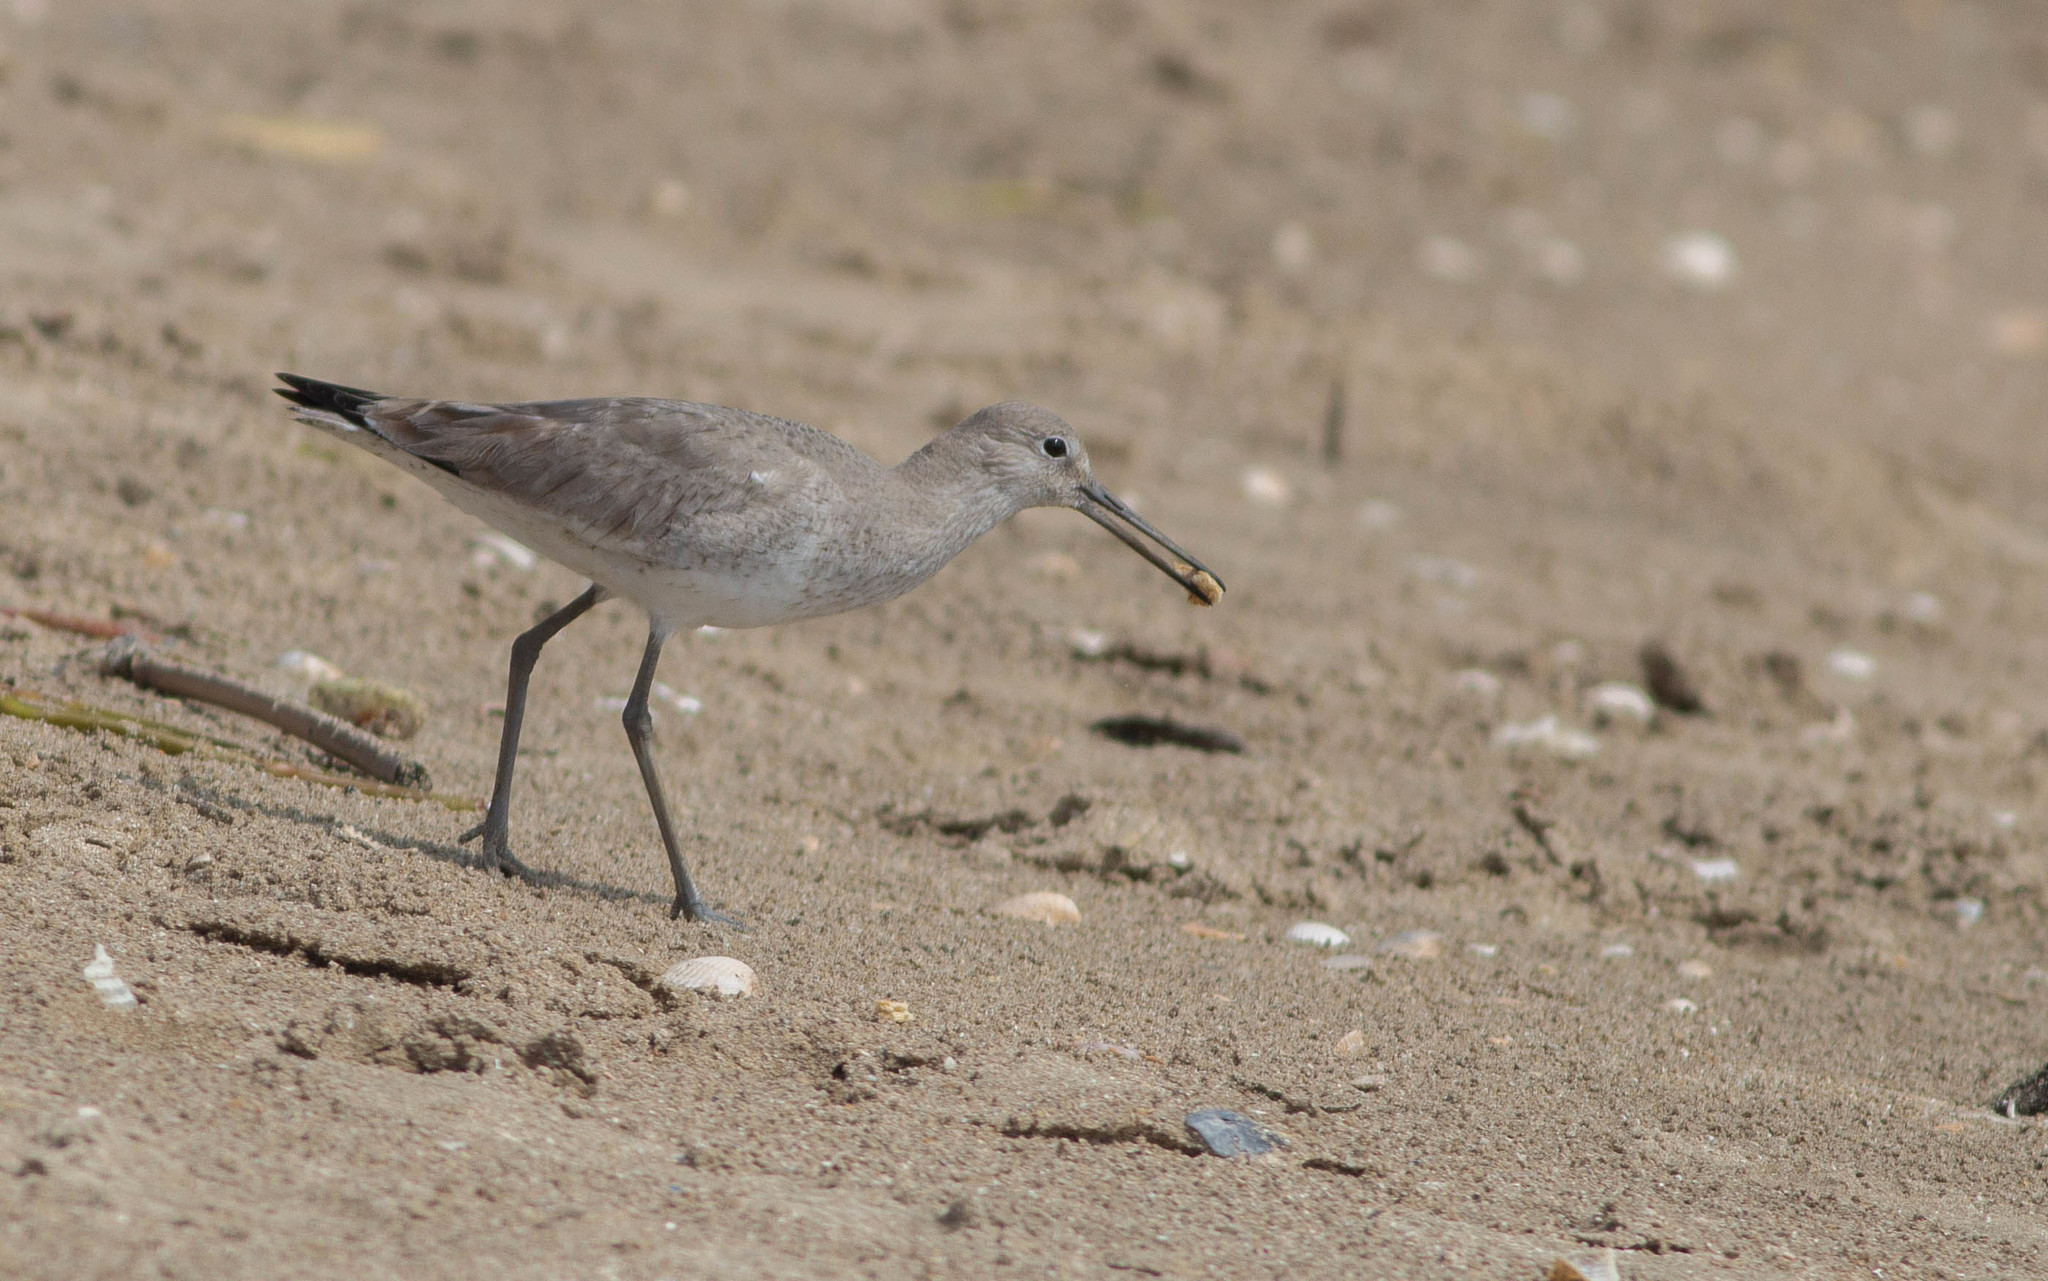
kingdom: Animalia
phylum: Chordata
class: Aves
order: Charadriiformes
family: Scolopacidae
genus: Tringa
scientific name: Tringa semipalmata
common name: Willet
